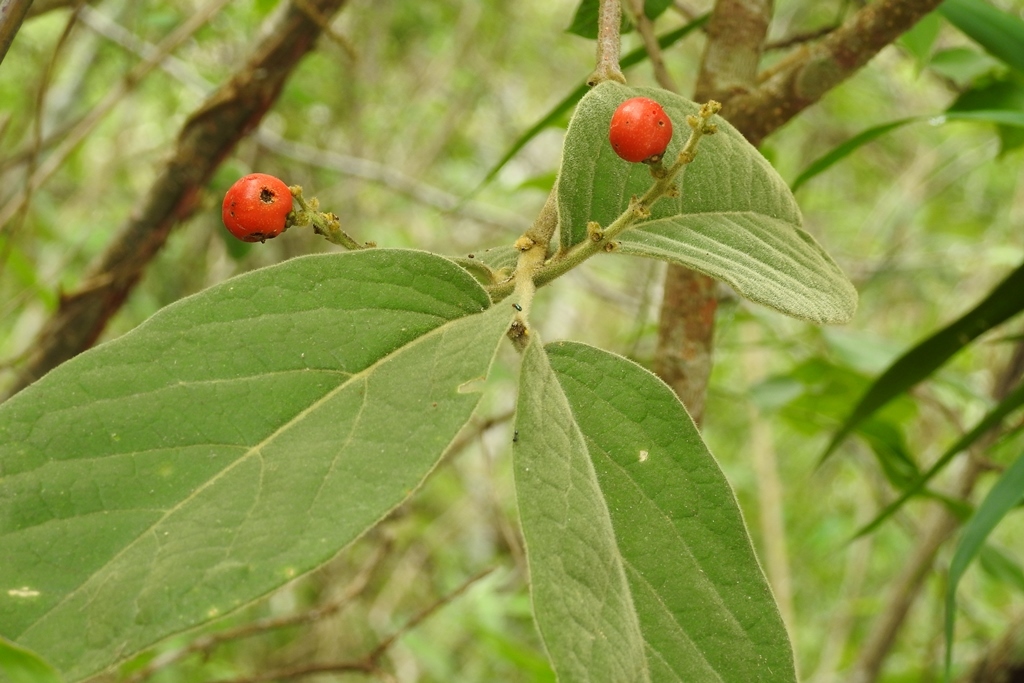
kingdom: Plantae
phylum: Tracheophyta
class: Magnoliopsida
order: Malpighiales
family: Malpighiaceae
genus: Bunchosia
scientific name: Bunchosia breedlovei
